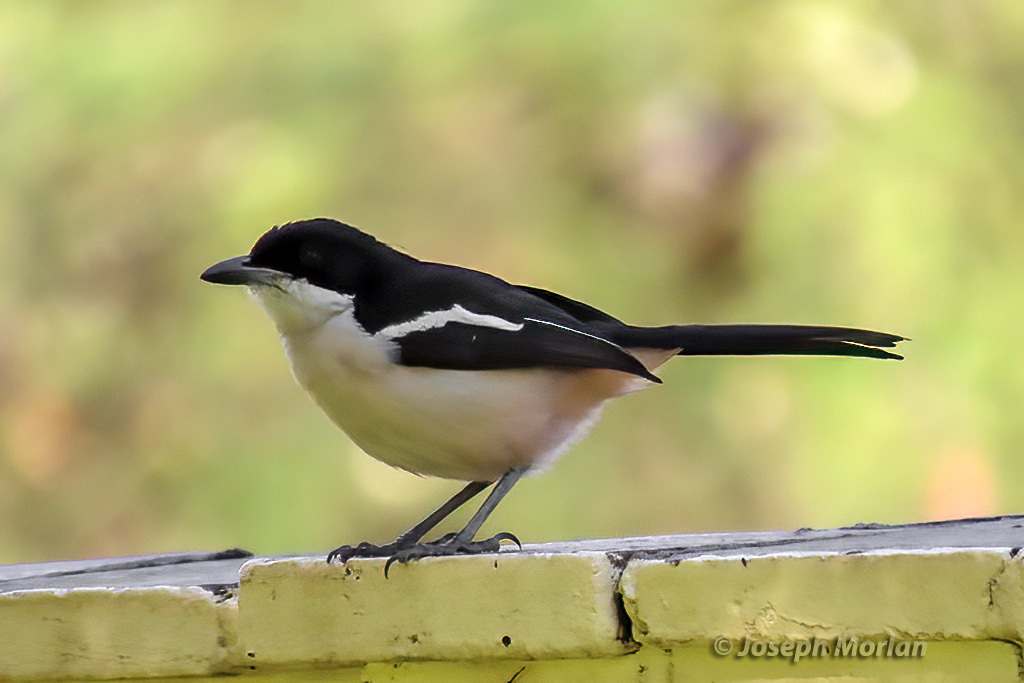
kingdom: Animalia
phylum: Chordata
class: Aves
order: Passeriformes
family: Malaconotidae
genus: Laniarius
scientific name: Laniarius major
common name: Tropical boubou
